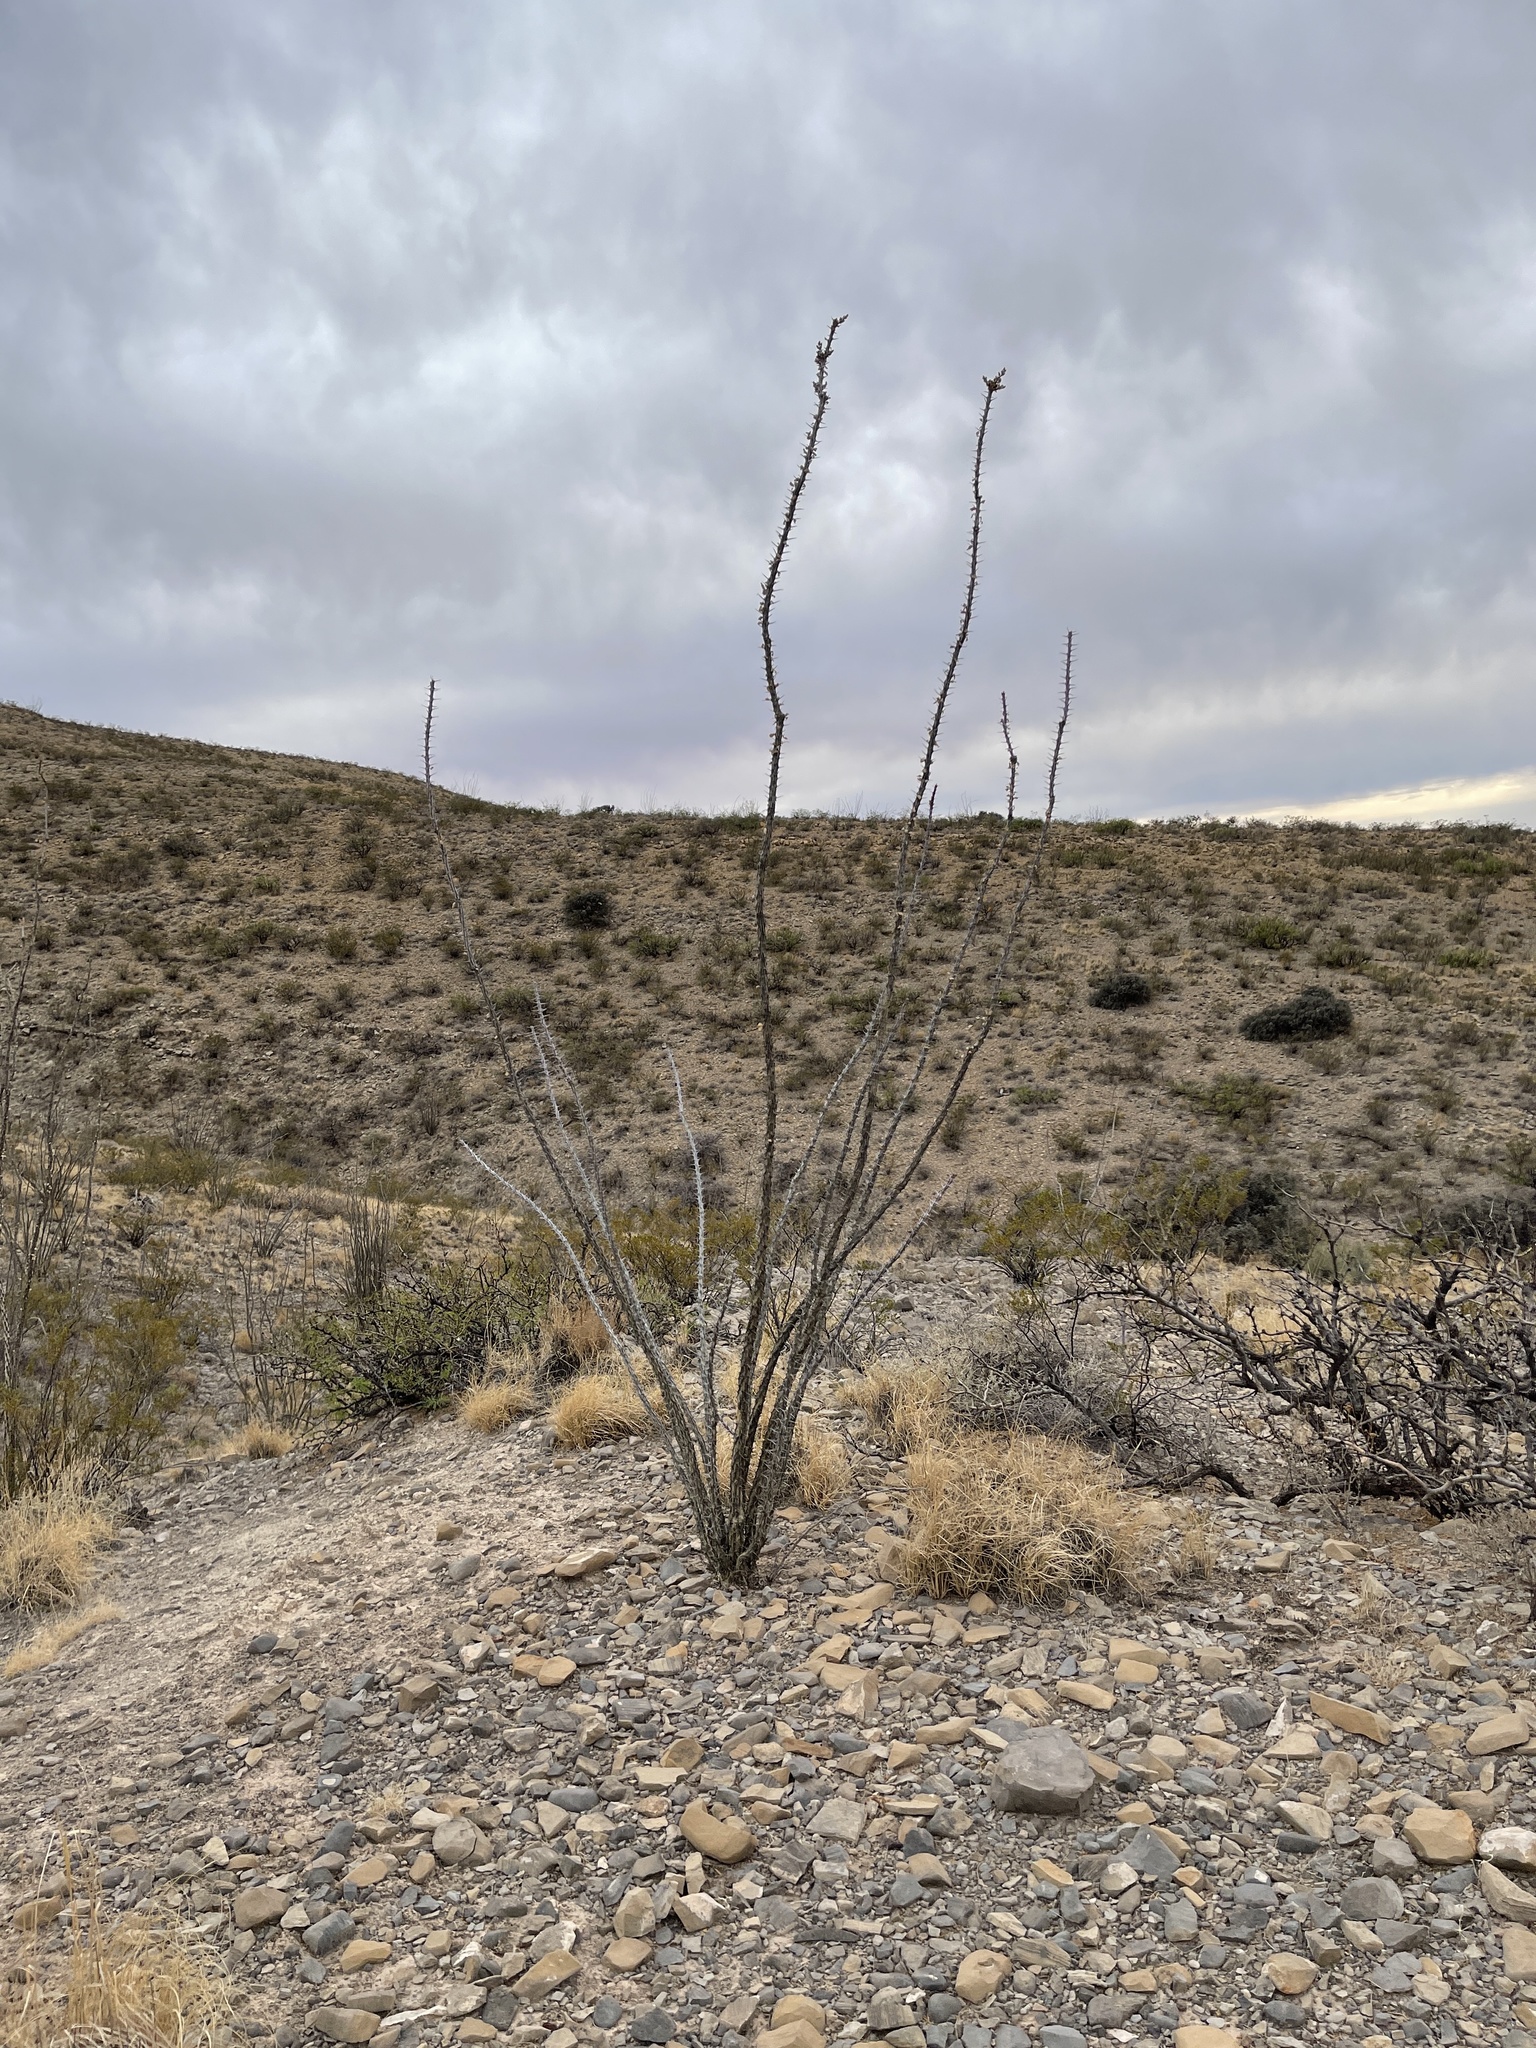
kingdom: Plantae
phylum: Tracheophyta
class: Magnoliopsida
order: Ericales
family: Fouquieriaceae
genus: Fouquieria
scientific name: Fouquieria splendens
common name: Vine-cactus
